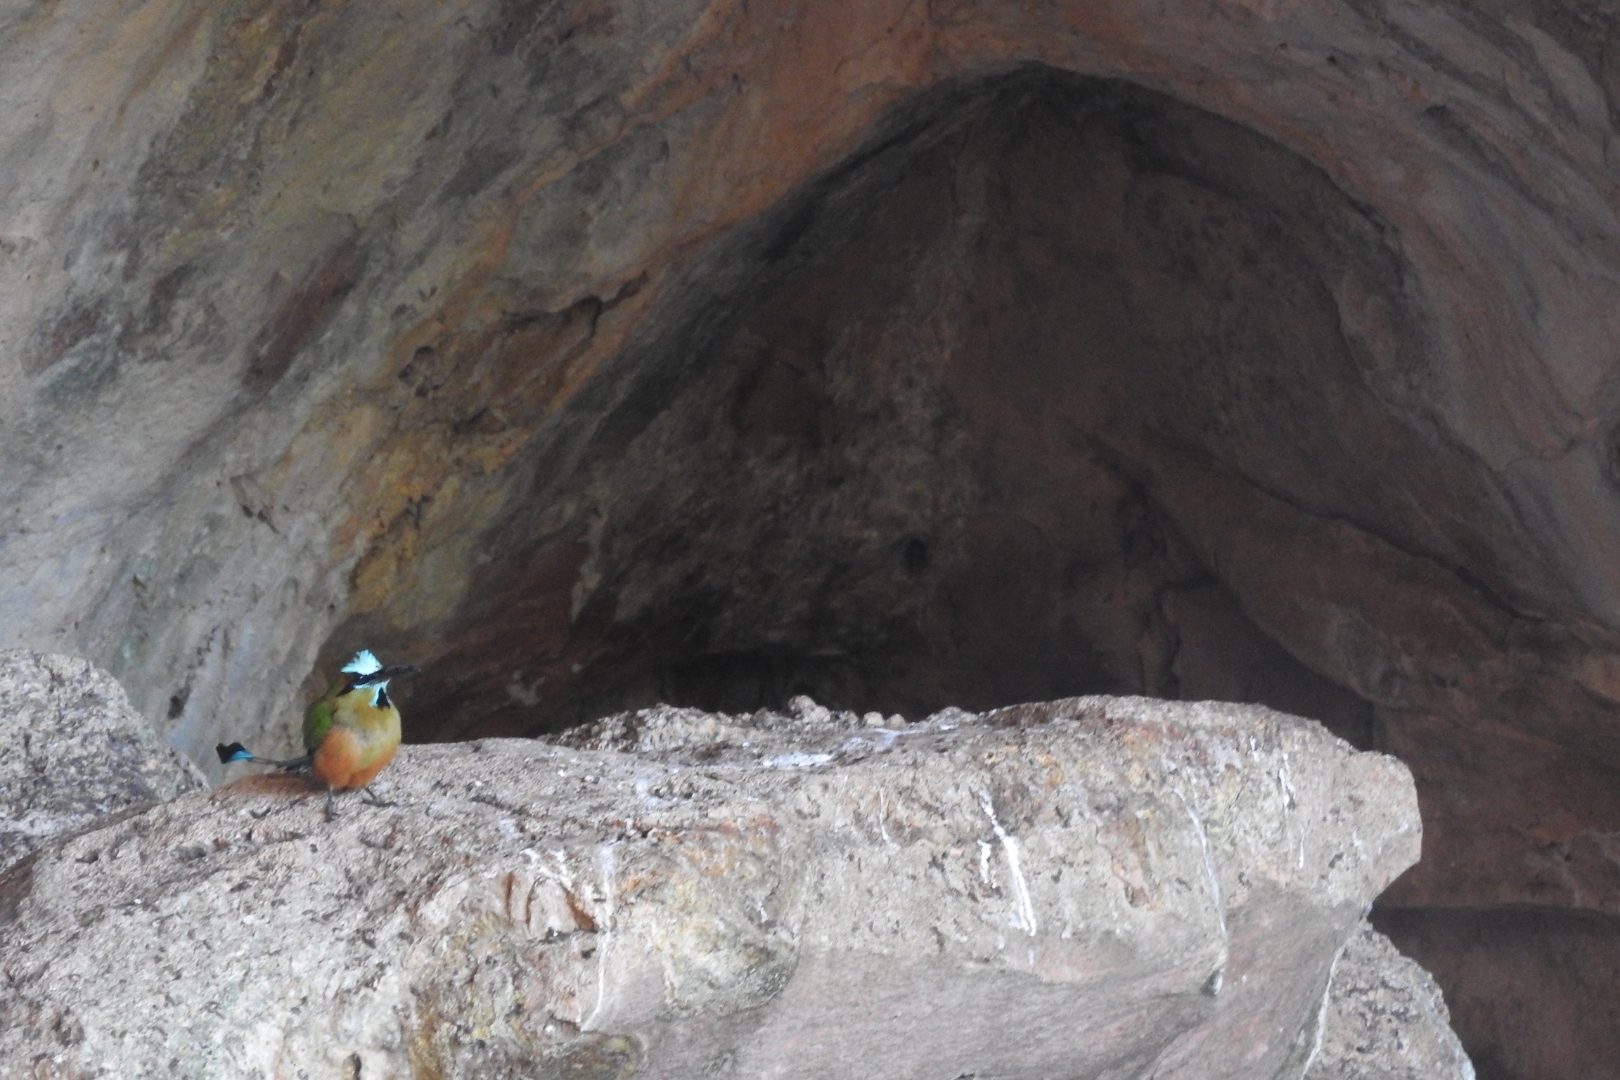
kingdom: Animalia
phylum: Chordata
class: Aves
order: Coraciiformes
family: Momotidae
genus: Eumomota
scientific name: Eumomota superciliosa
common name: Turquoise-browed motmot
